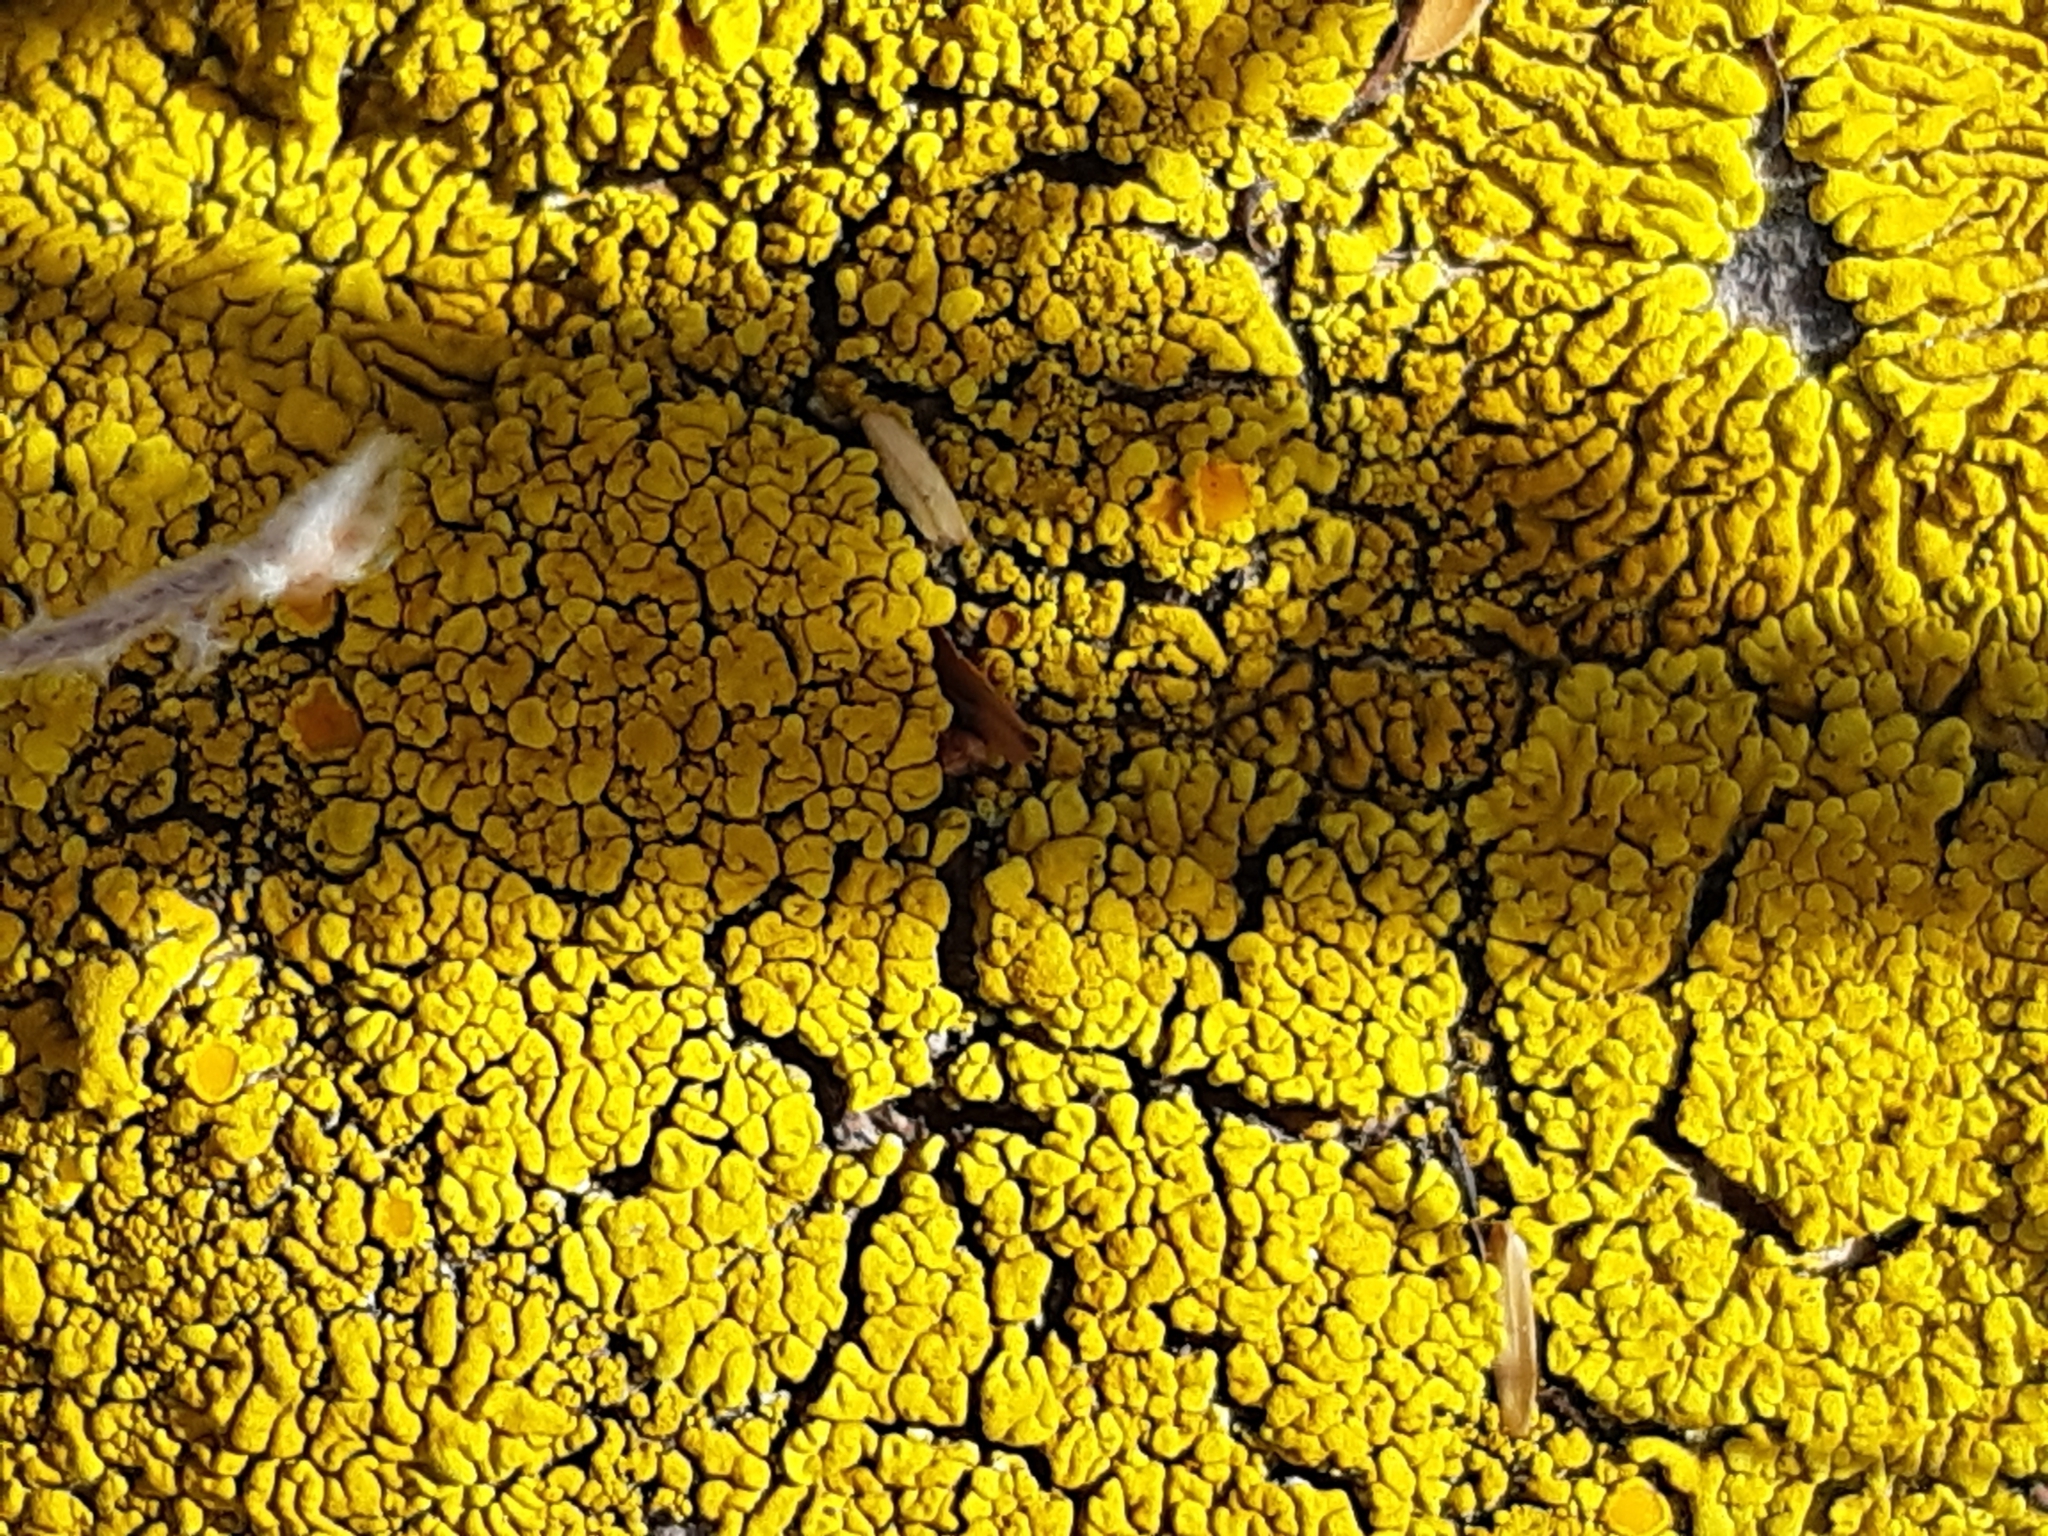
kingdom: Fungi
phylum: Ascomycota
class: Candelariomycetes
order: Candelariales
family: Candelariaceae
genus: Candelina
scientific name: Candelina submexicana
